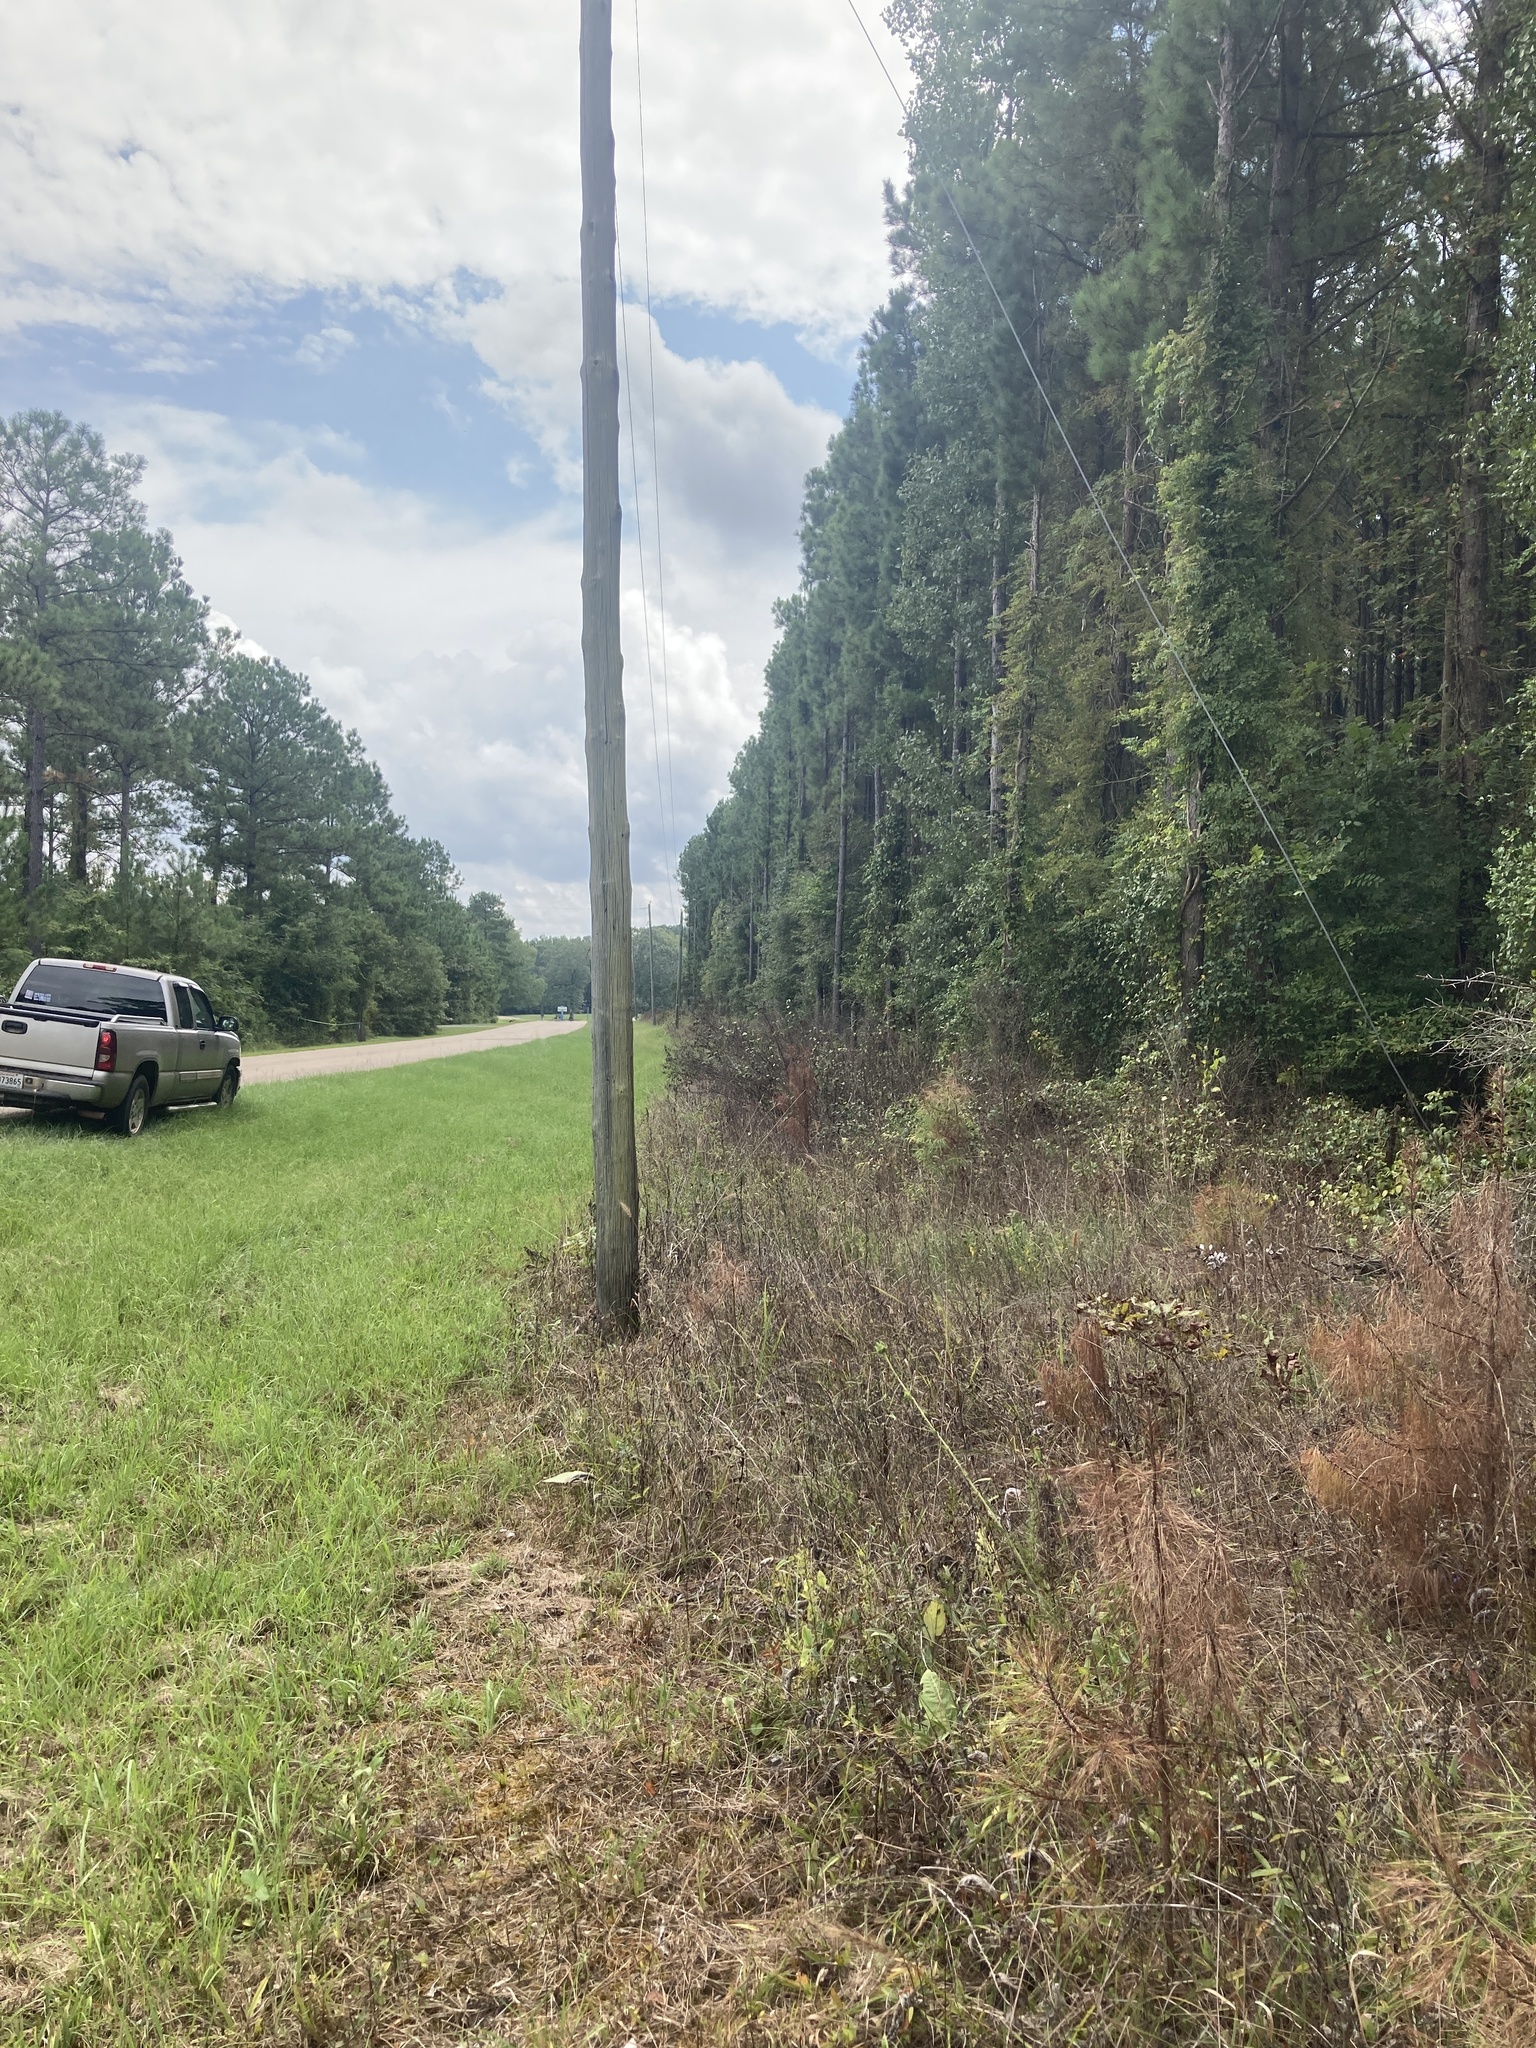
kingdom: Plantae
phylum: Tracheophyta
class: Magnoliopsida
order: Asterales
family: Asteraceae
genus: Silphium
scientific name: Silphium laciniatum
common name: Polarplant
